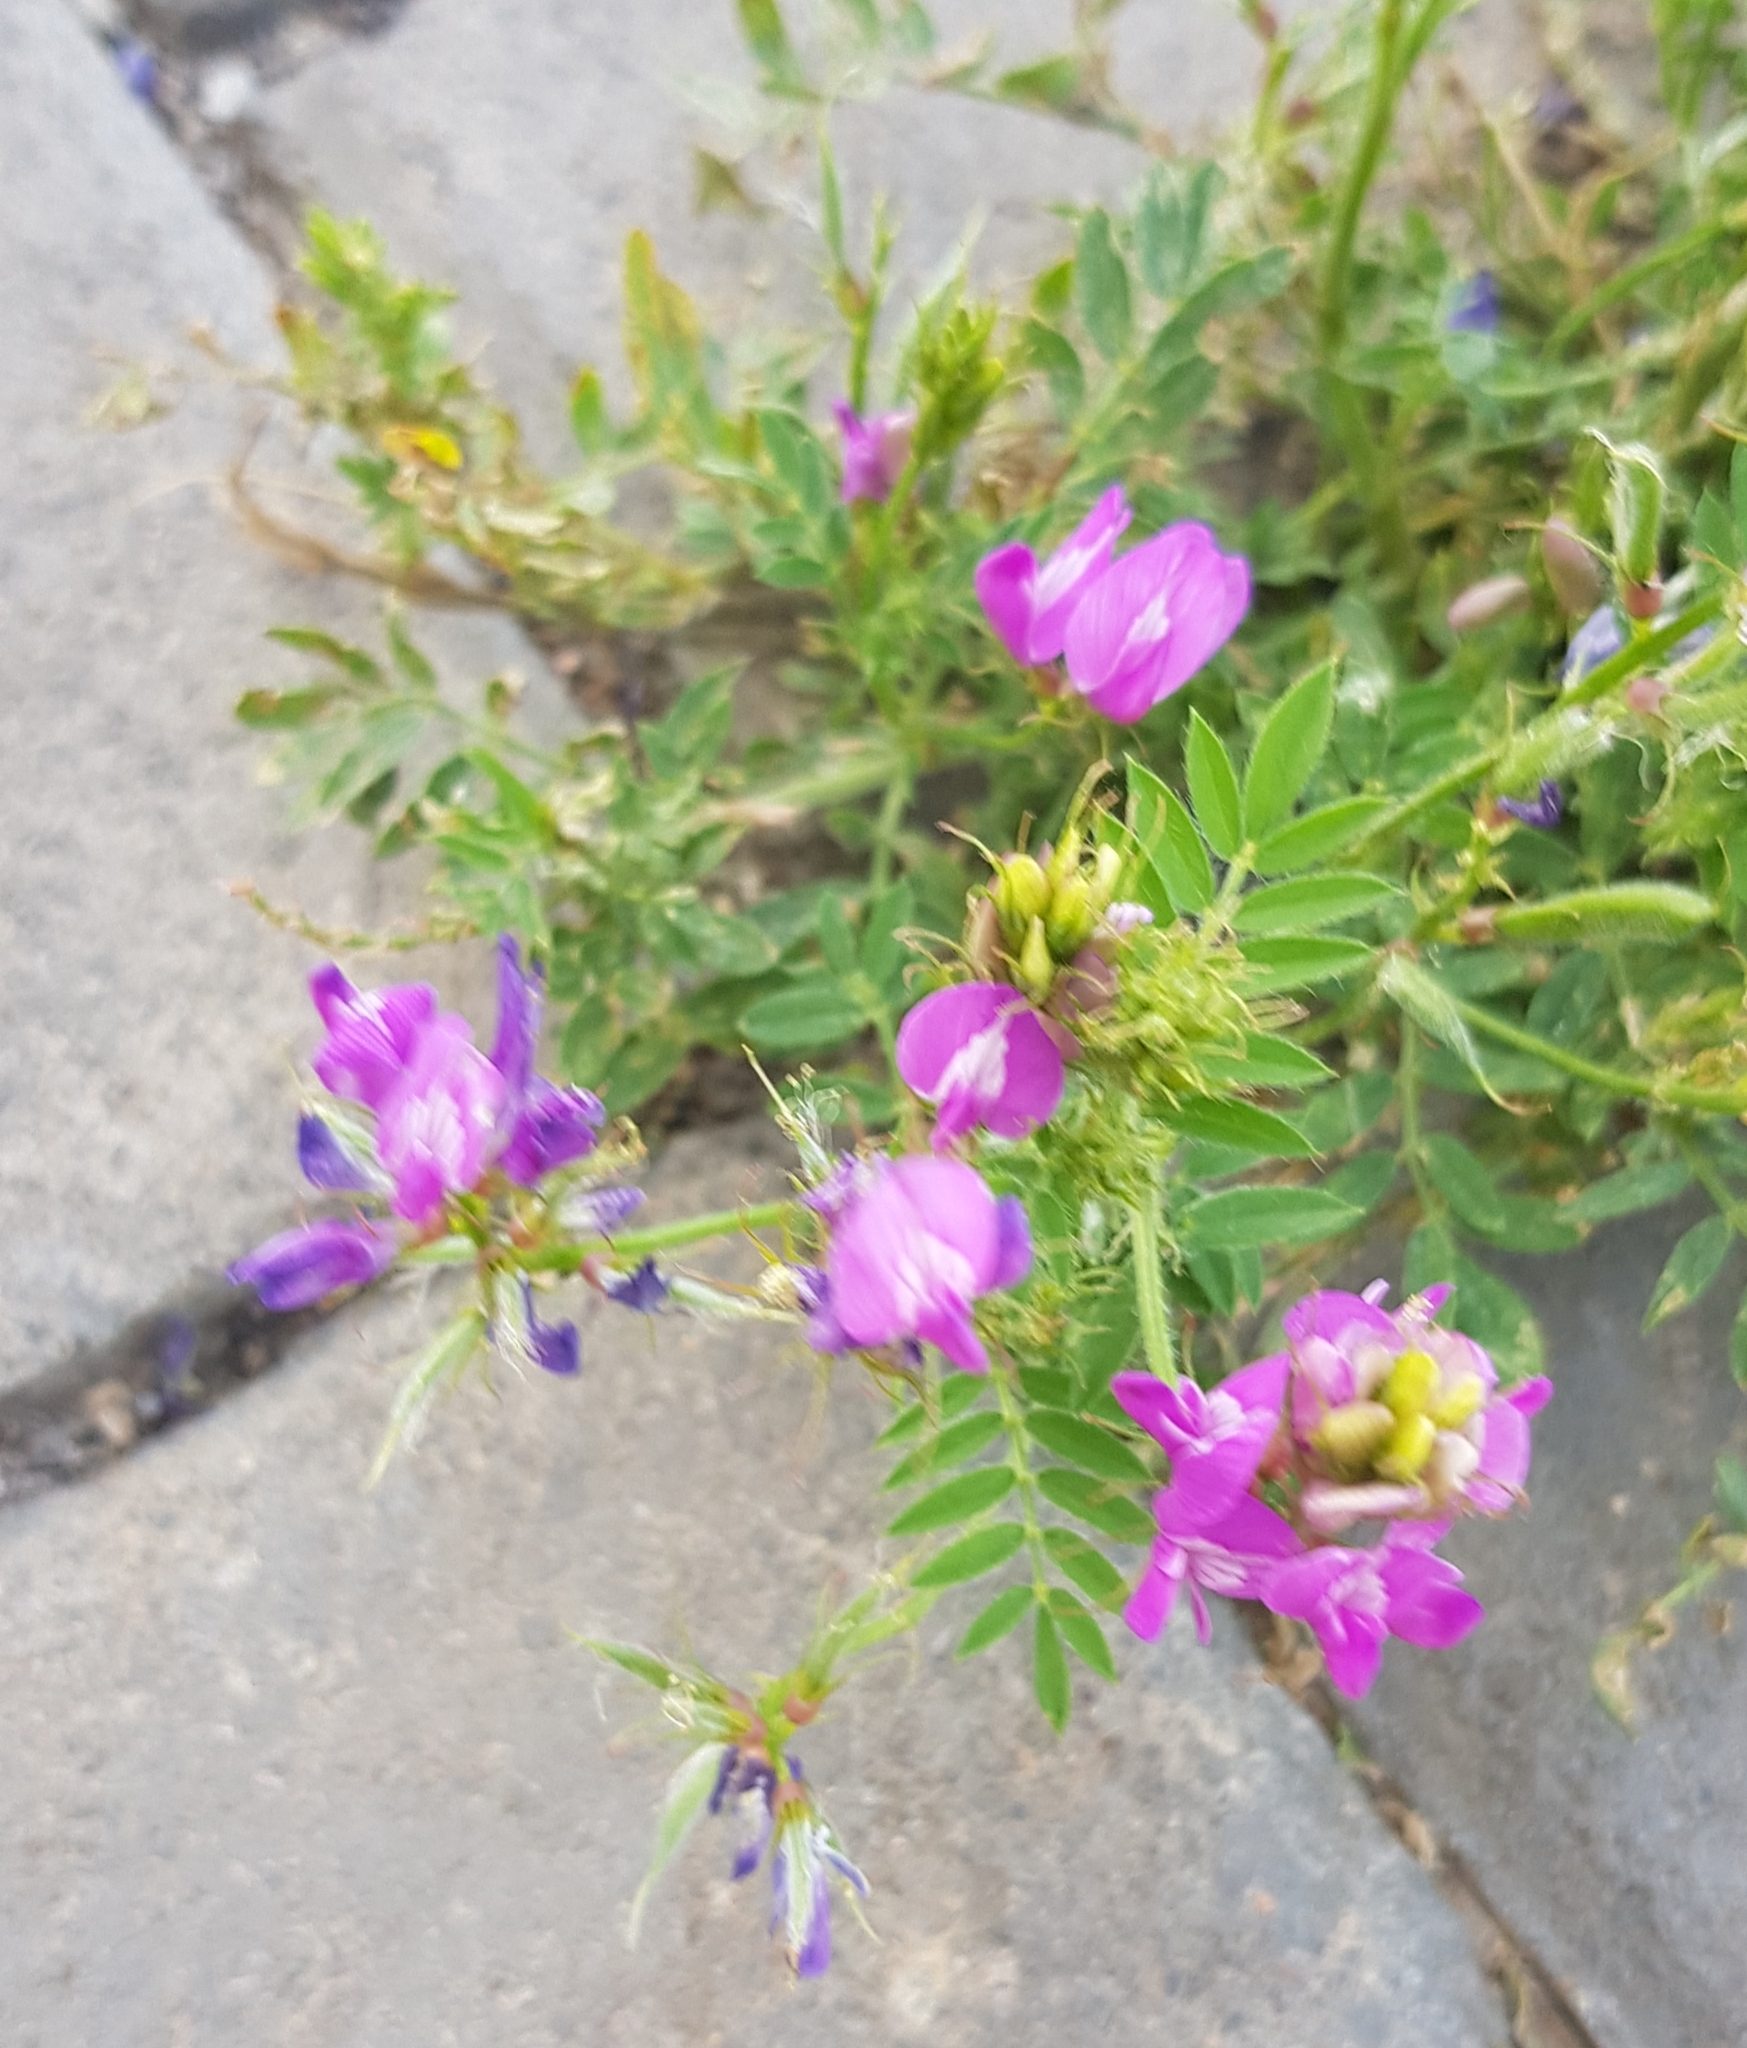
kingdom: Plantae
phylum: Tracheophyta
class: Magnoliopsida
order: Fabales
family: Fabaceae
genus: Astragalus
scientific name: Astragalus davuricus
